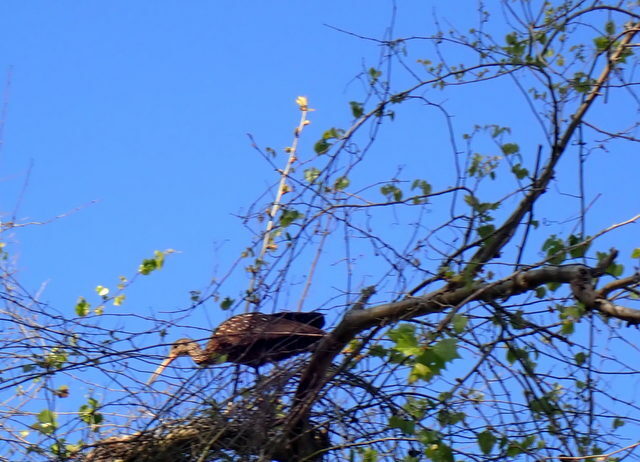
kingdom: Animalia
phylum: Chordata
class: Aves
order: Gruiformes
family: Aramidae
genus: Aramus
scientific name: Aramus guarauna
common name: Limpkin
